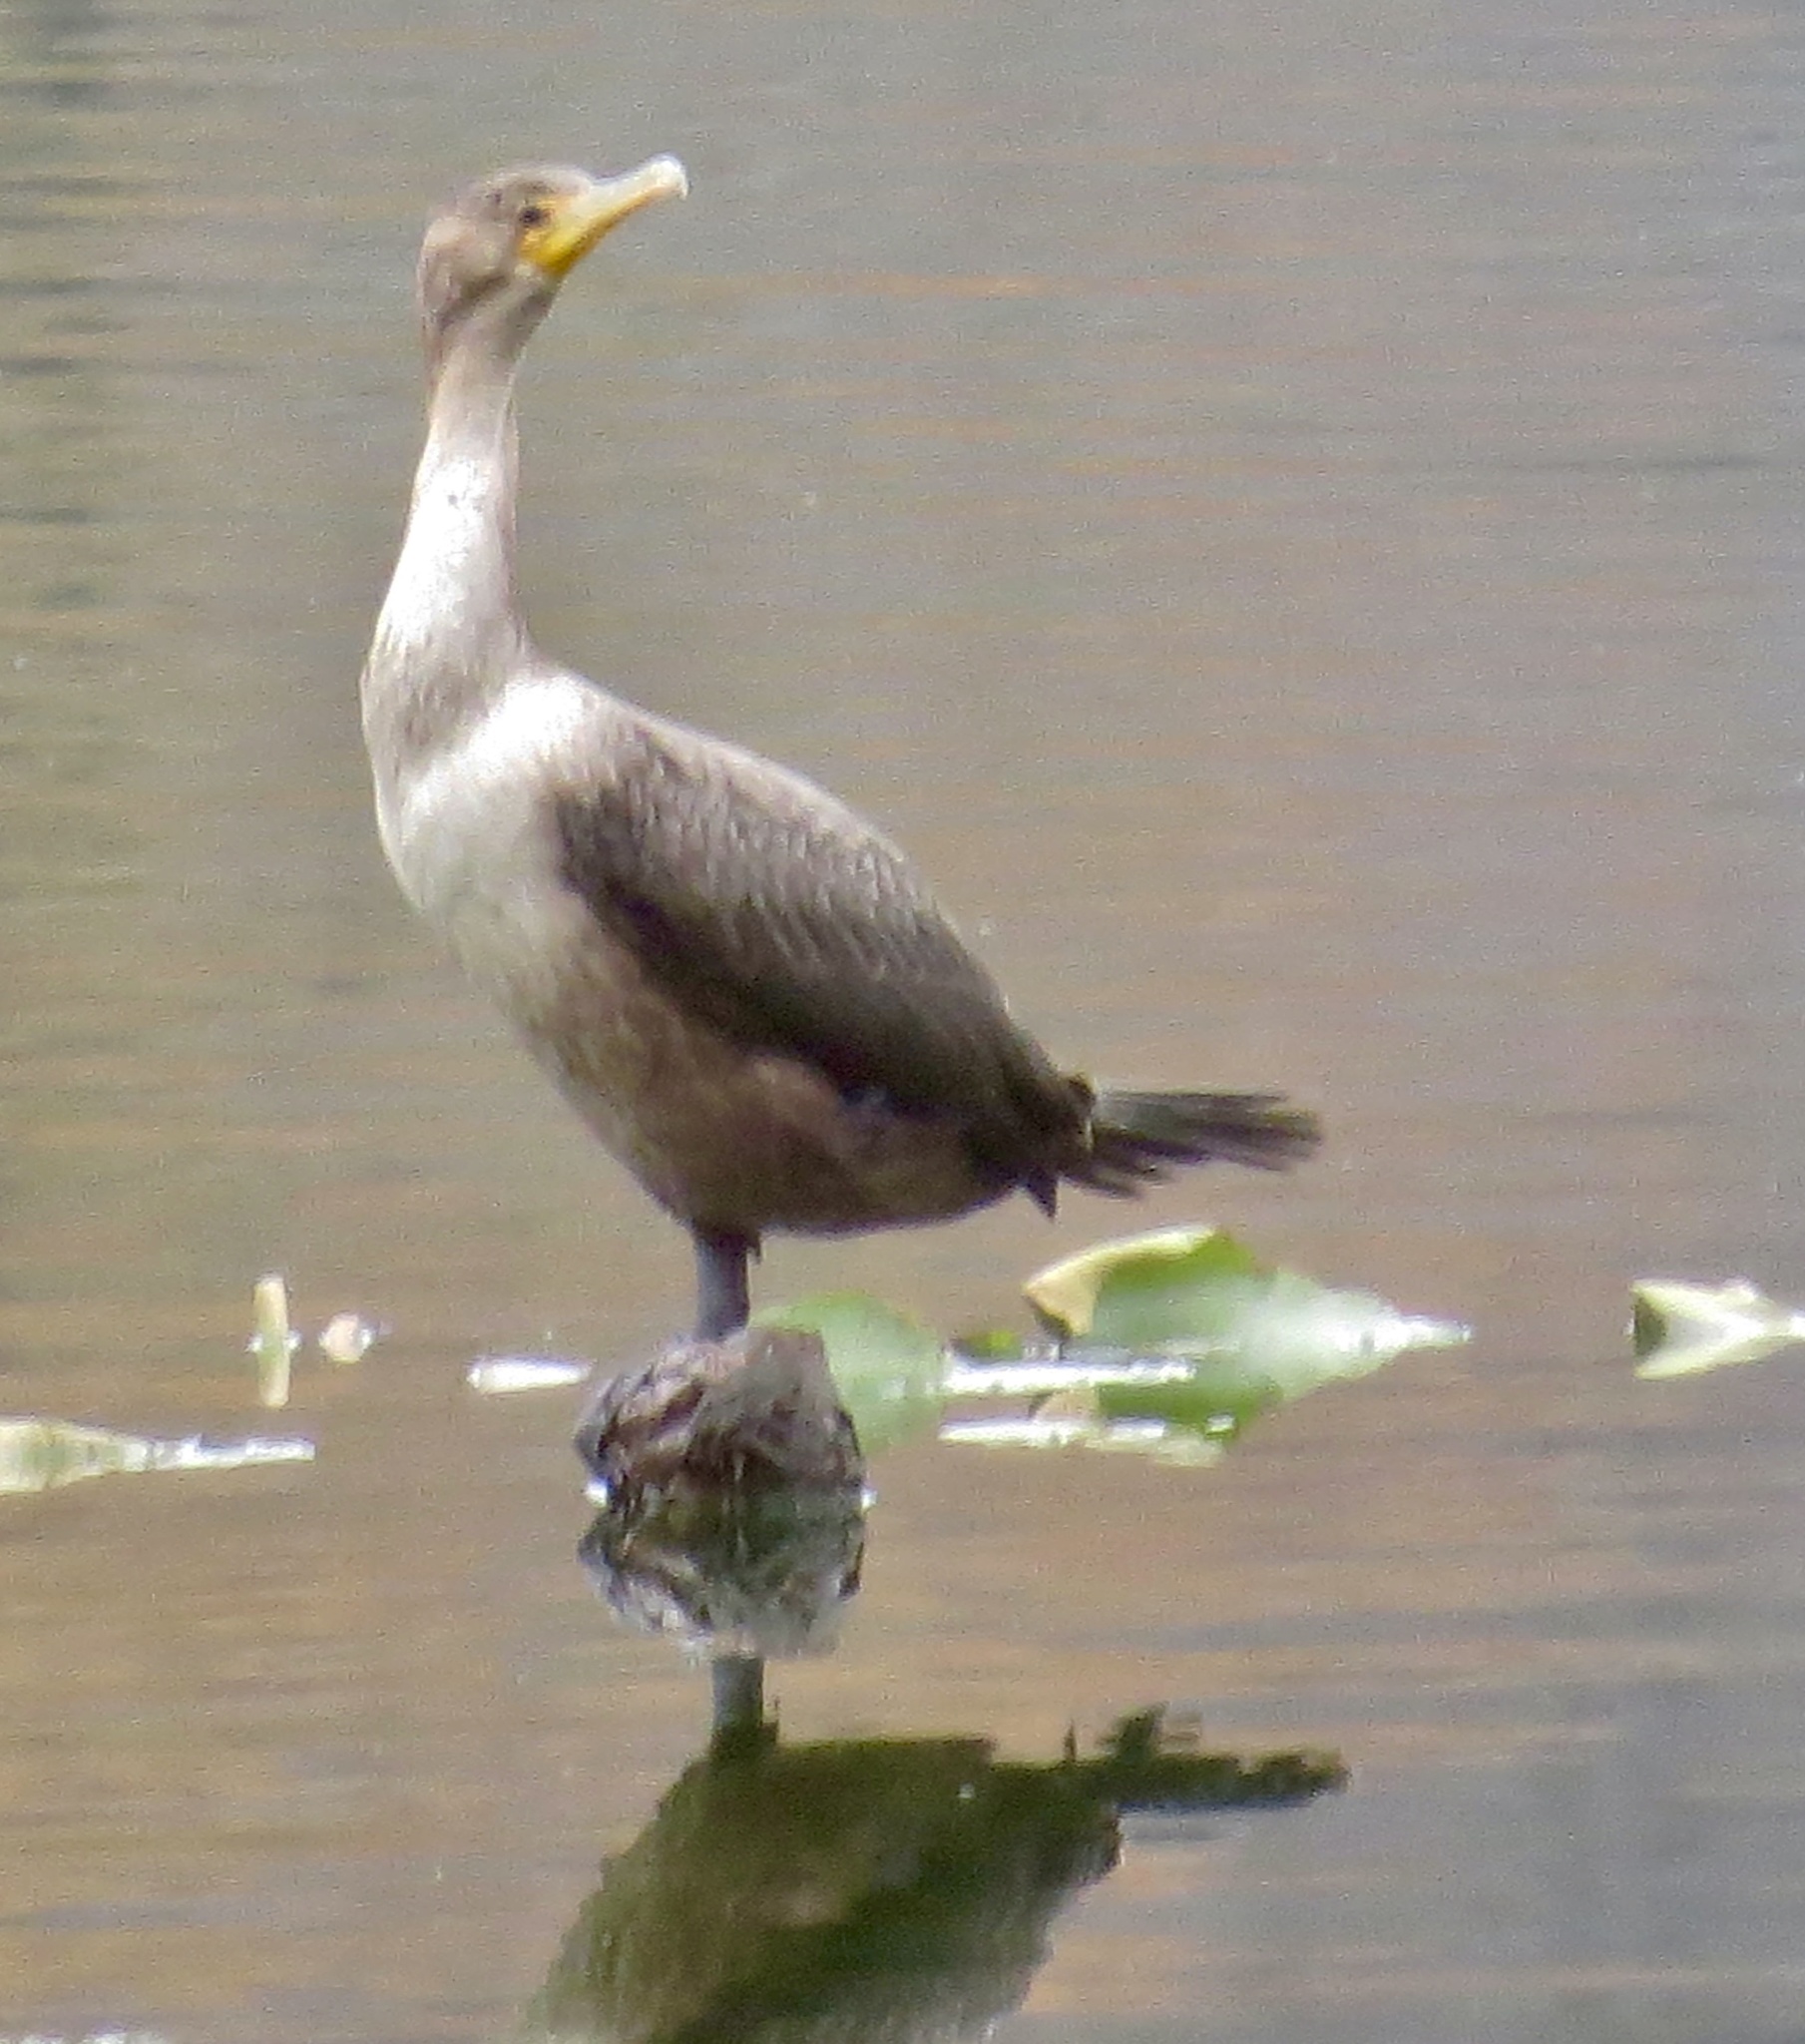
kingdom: Animalia
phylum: Chordata
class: Aves
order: Suliformes
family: Phalacrocoracidae
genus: Phalacrocorax
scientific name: Phalacrocorax auritus
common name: Double-crested cormorant
